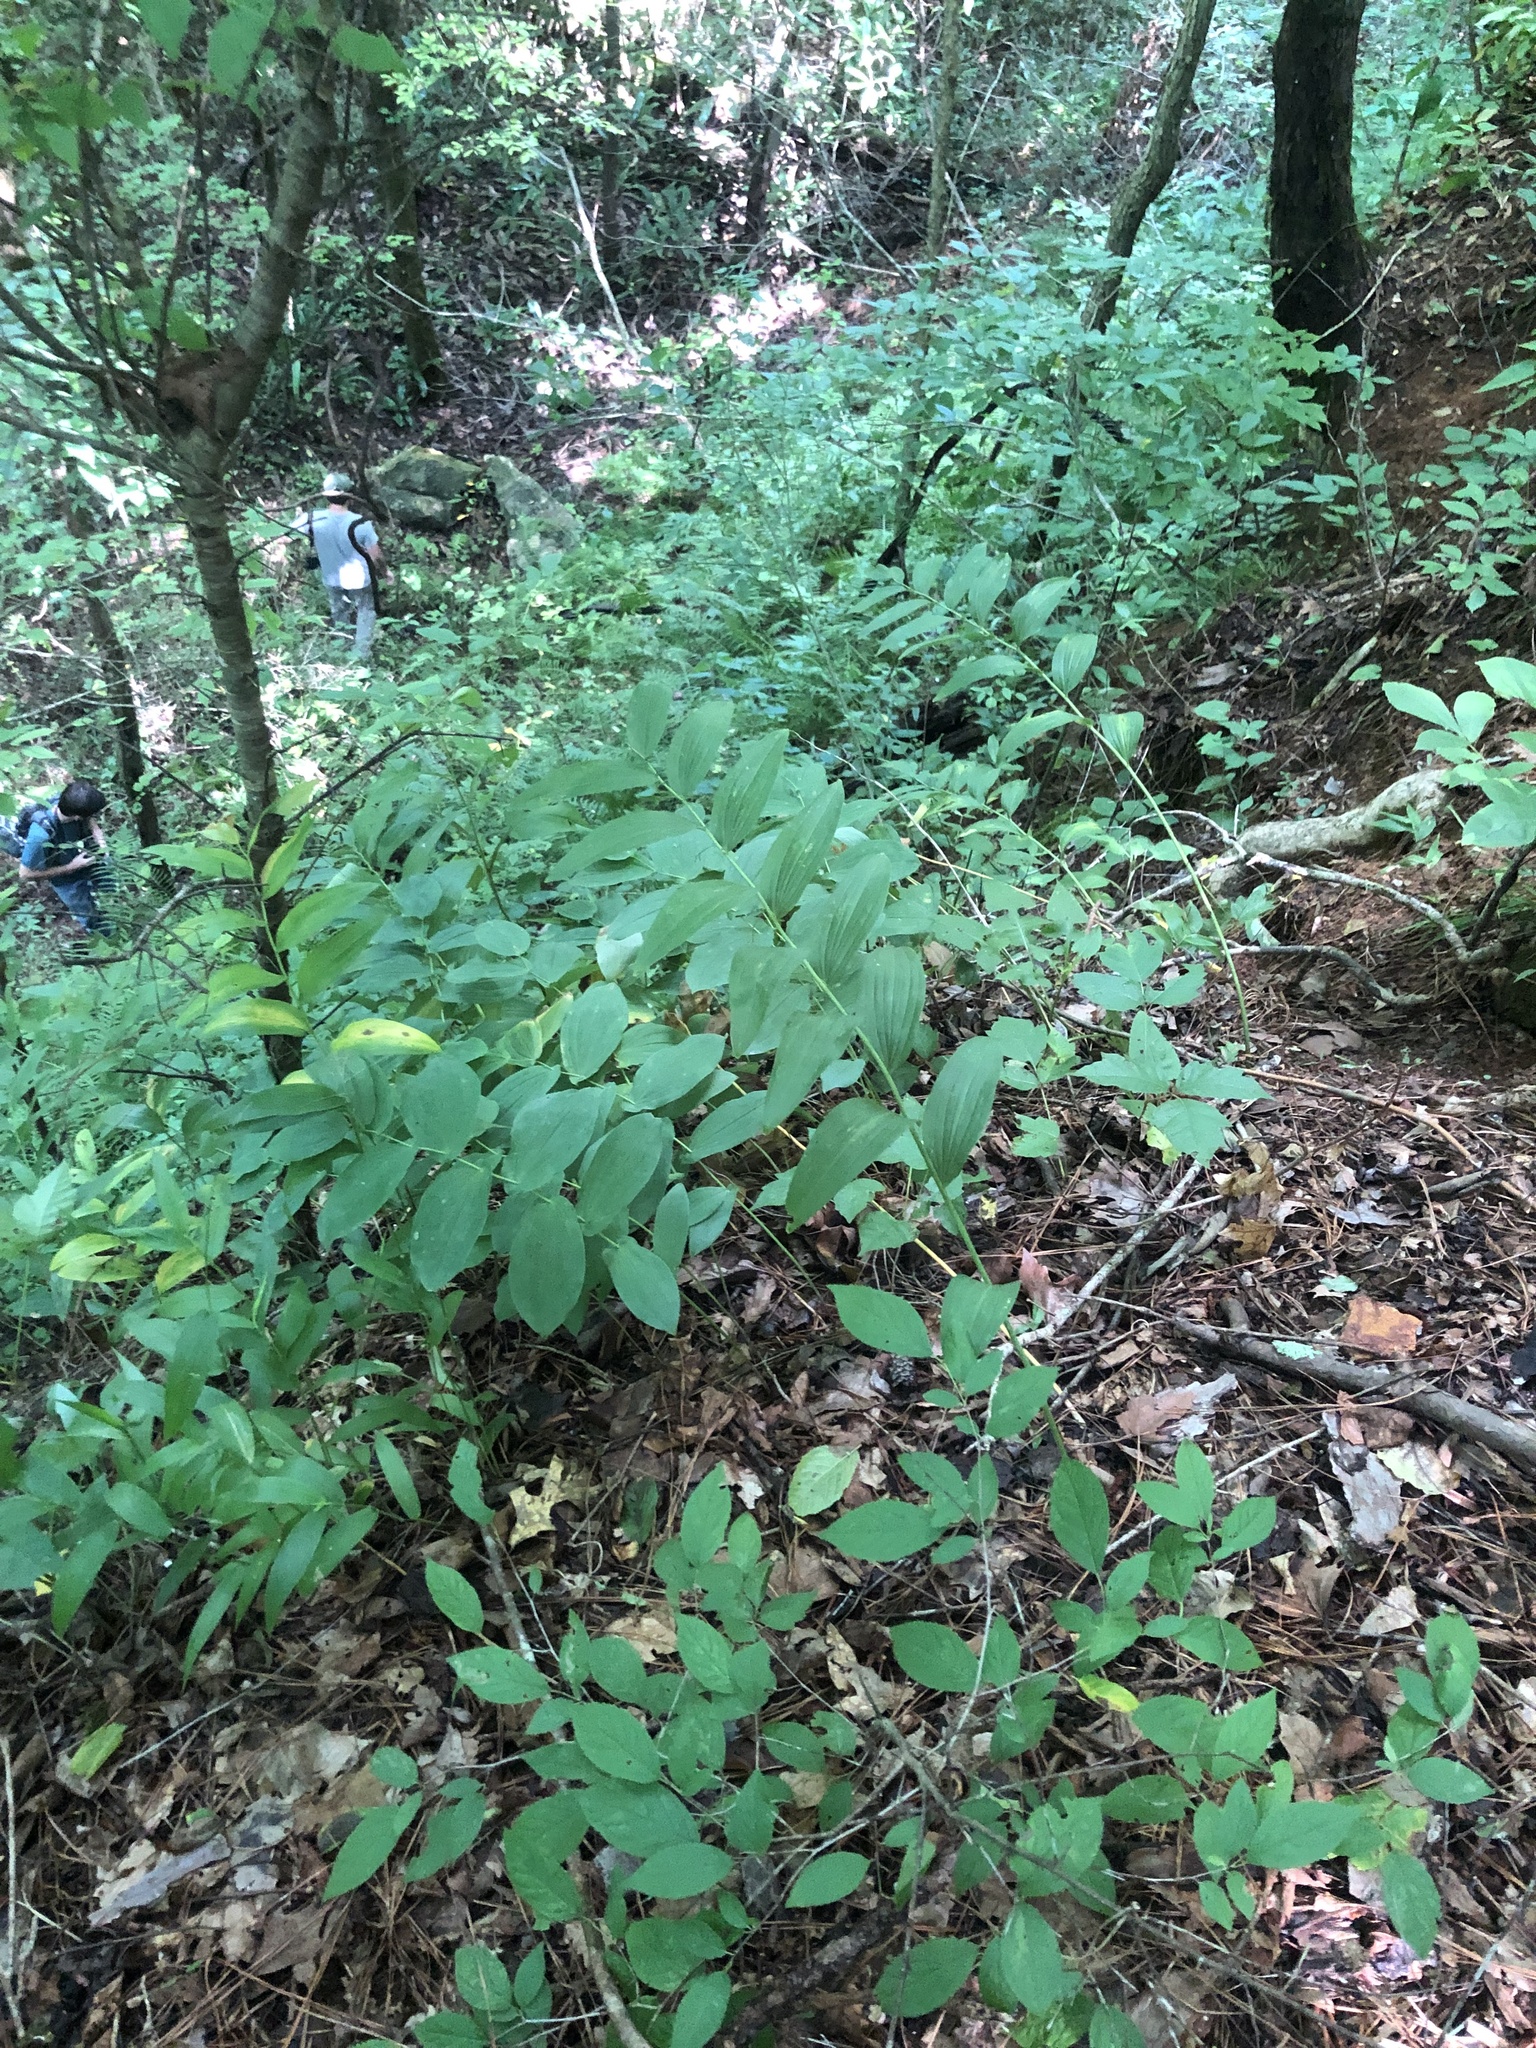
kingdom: Plantae
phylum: Tracheophyta
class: Liliopsida
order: Asparagales
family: Asparagaceae
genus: Polygonatum
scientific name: Polygonatum biflorum
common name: American solomon's-seal
